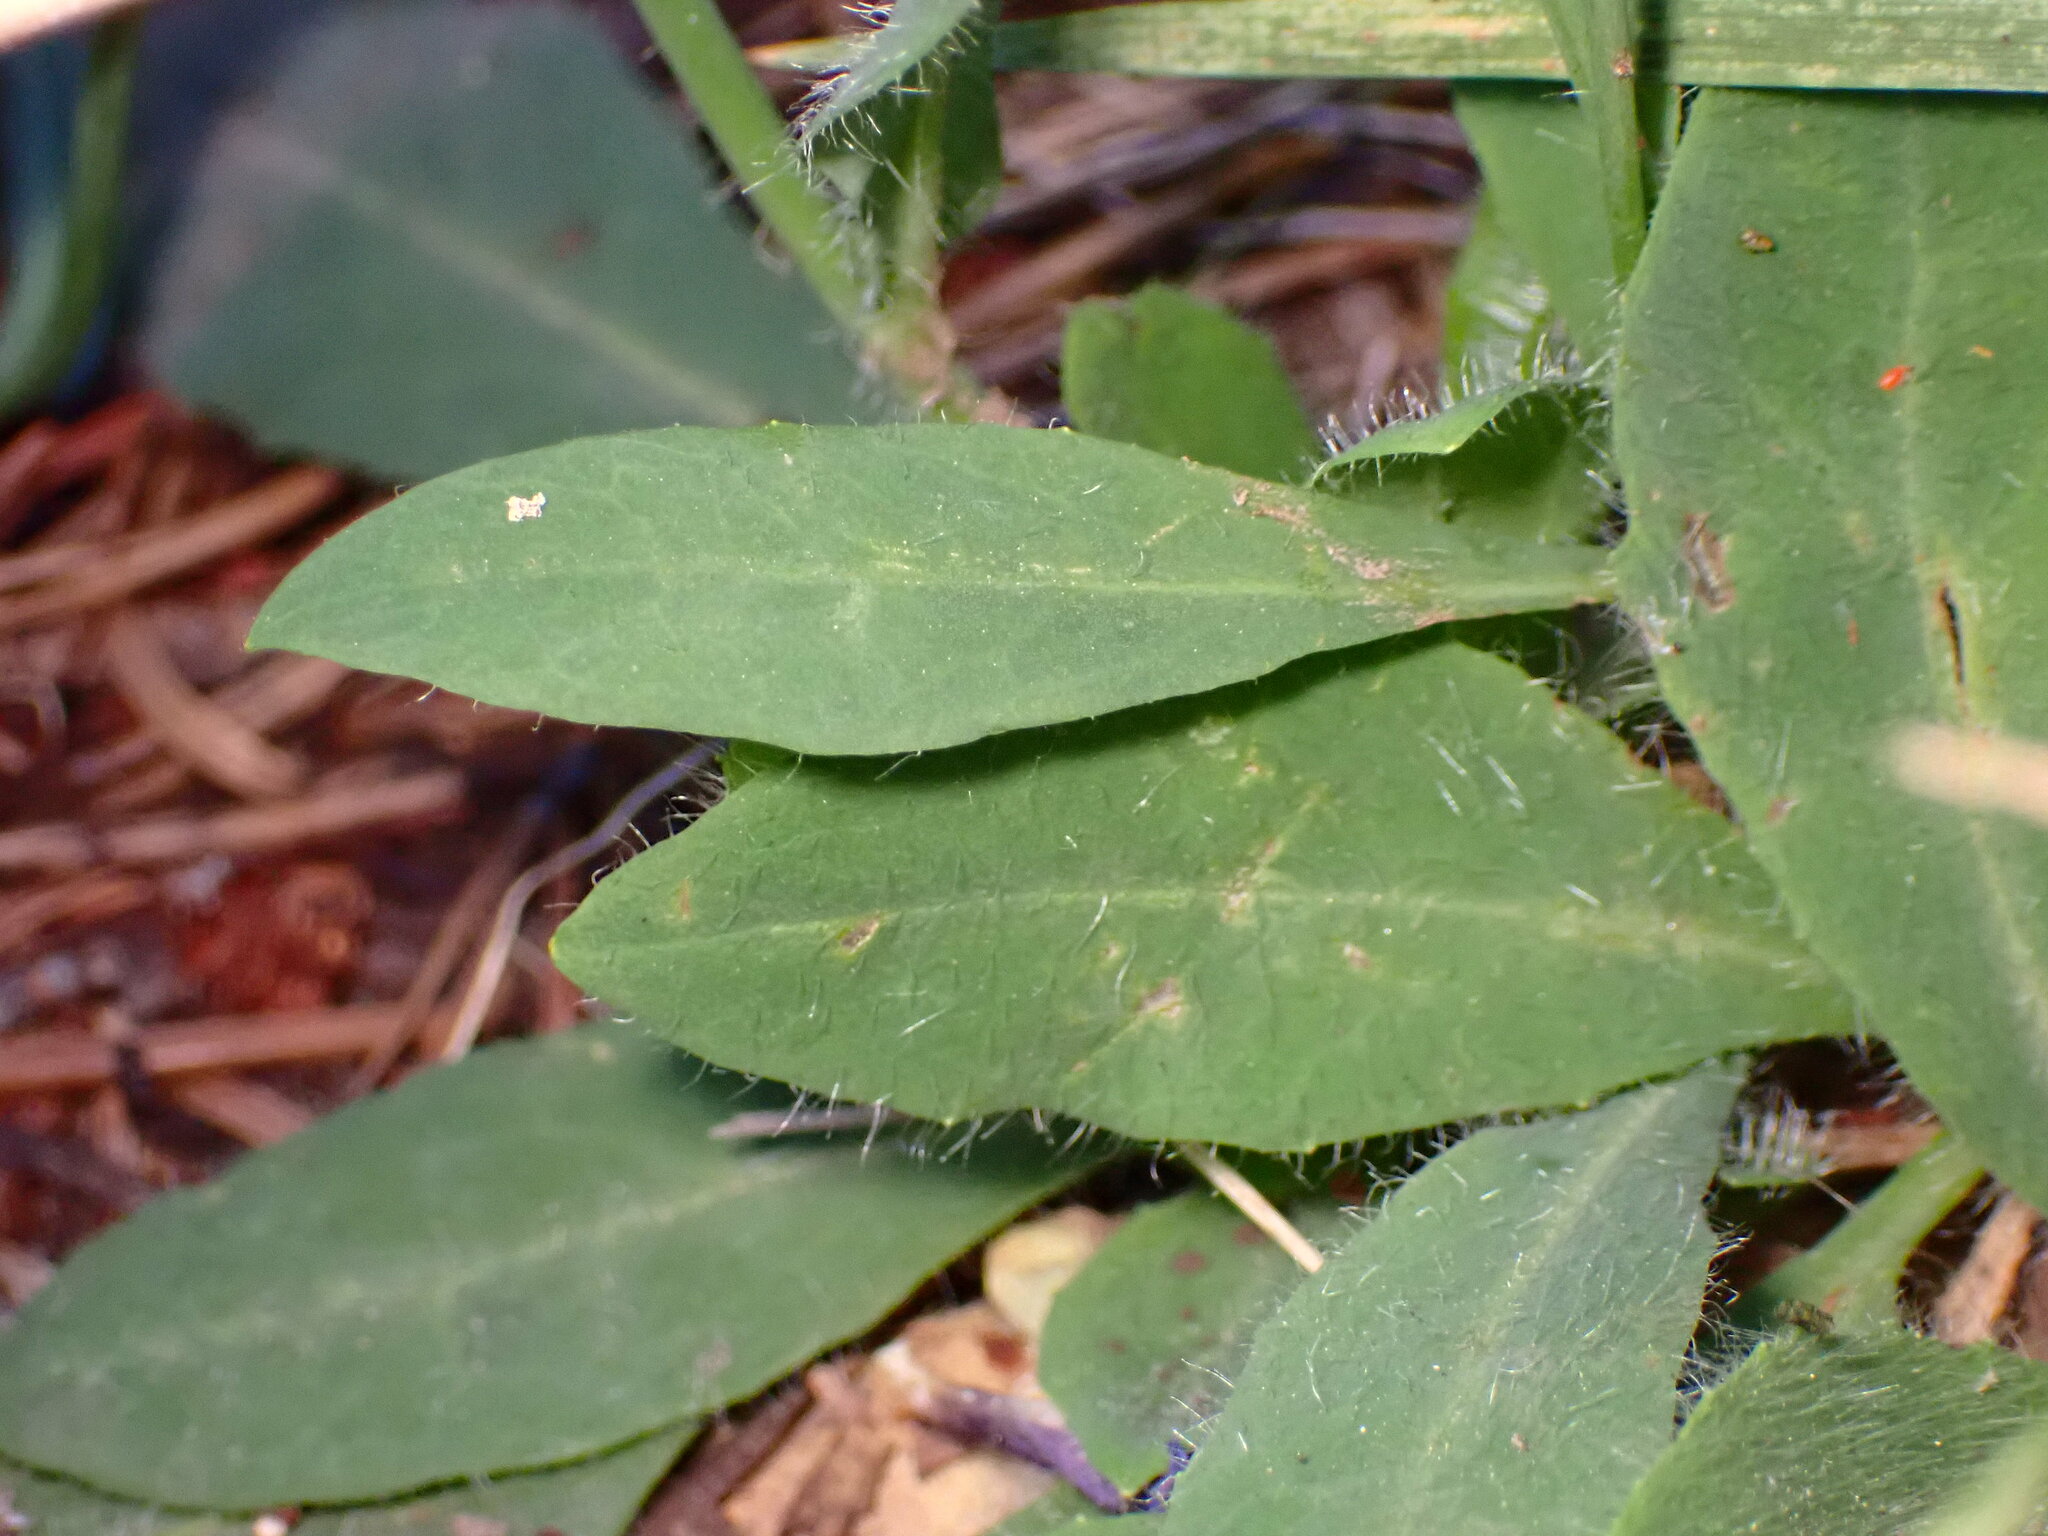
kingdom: Plantae
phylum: Tracheophyta
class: Magnoliopsida
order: Asterales
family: Asteraceae
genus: Hieracium
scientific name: Hieracium albiflorum
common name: White hawkweed
